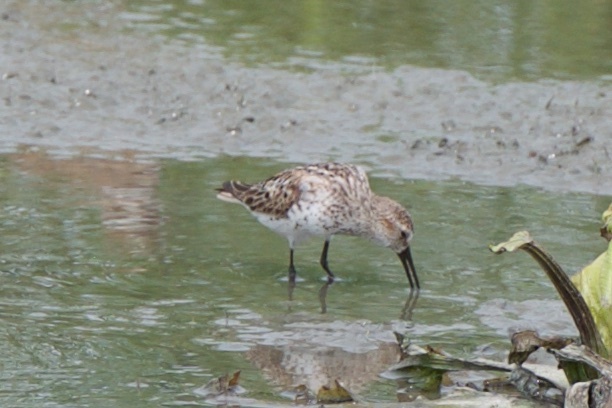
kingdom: Animalia
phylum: Chordata
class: Aves
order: Charadriiformes
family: Scolopacidae
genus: Calidris
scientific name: Calidris mauri
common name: Western sandpiper
